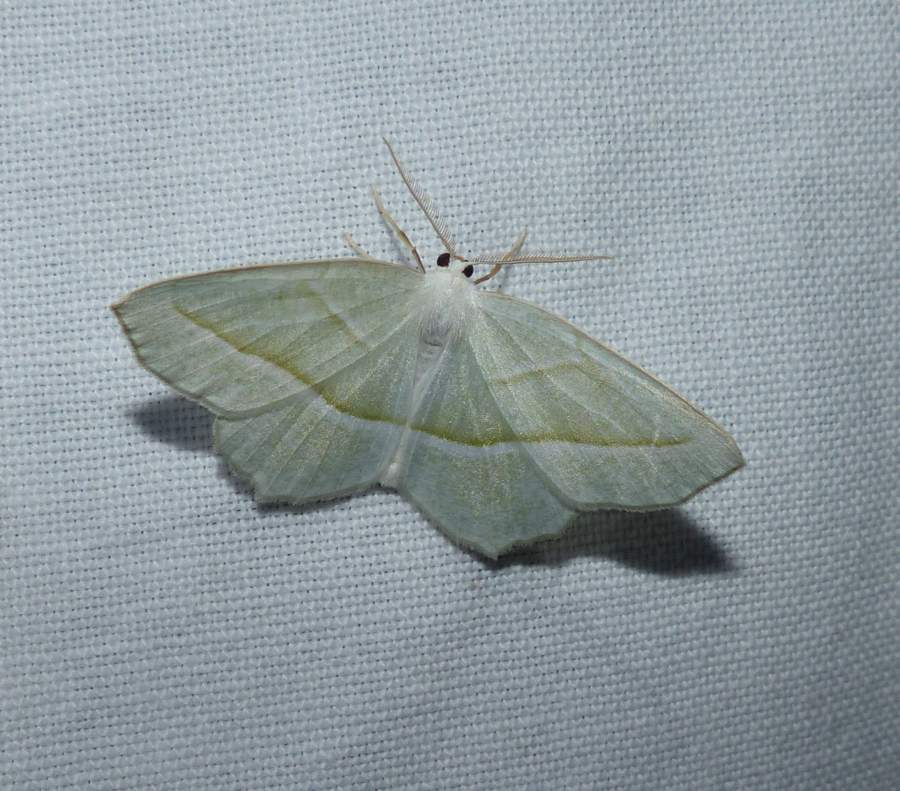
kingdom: Animalia
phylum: Arthropoda
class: Insecta
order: Lepidoptera
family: Geometridae
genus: Campaea
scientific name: Campaea perlata
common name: Fringed looper
